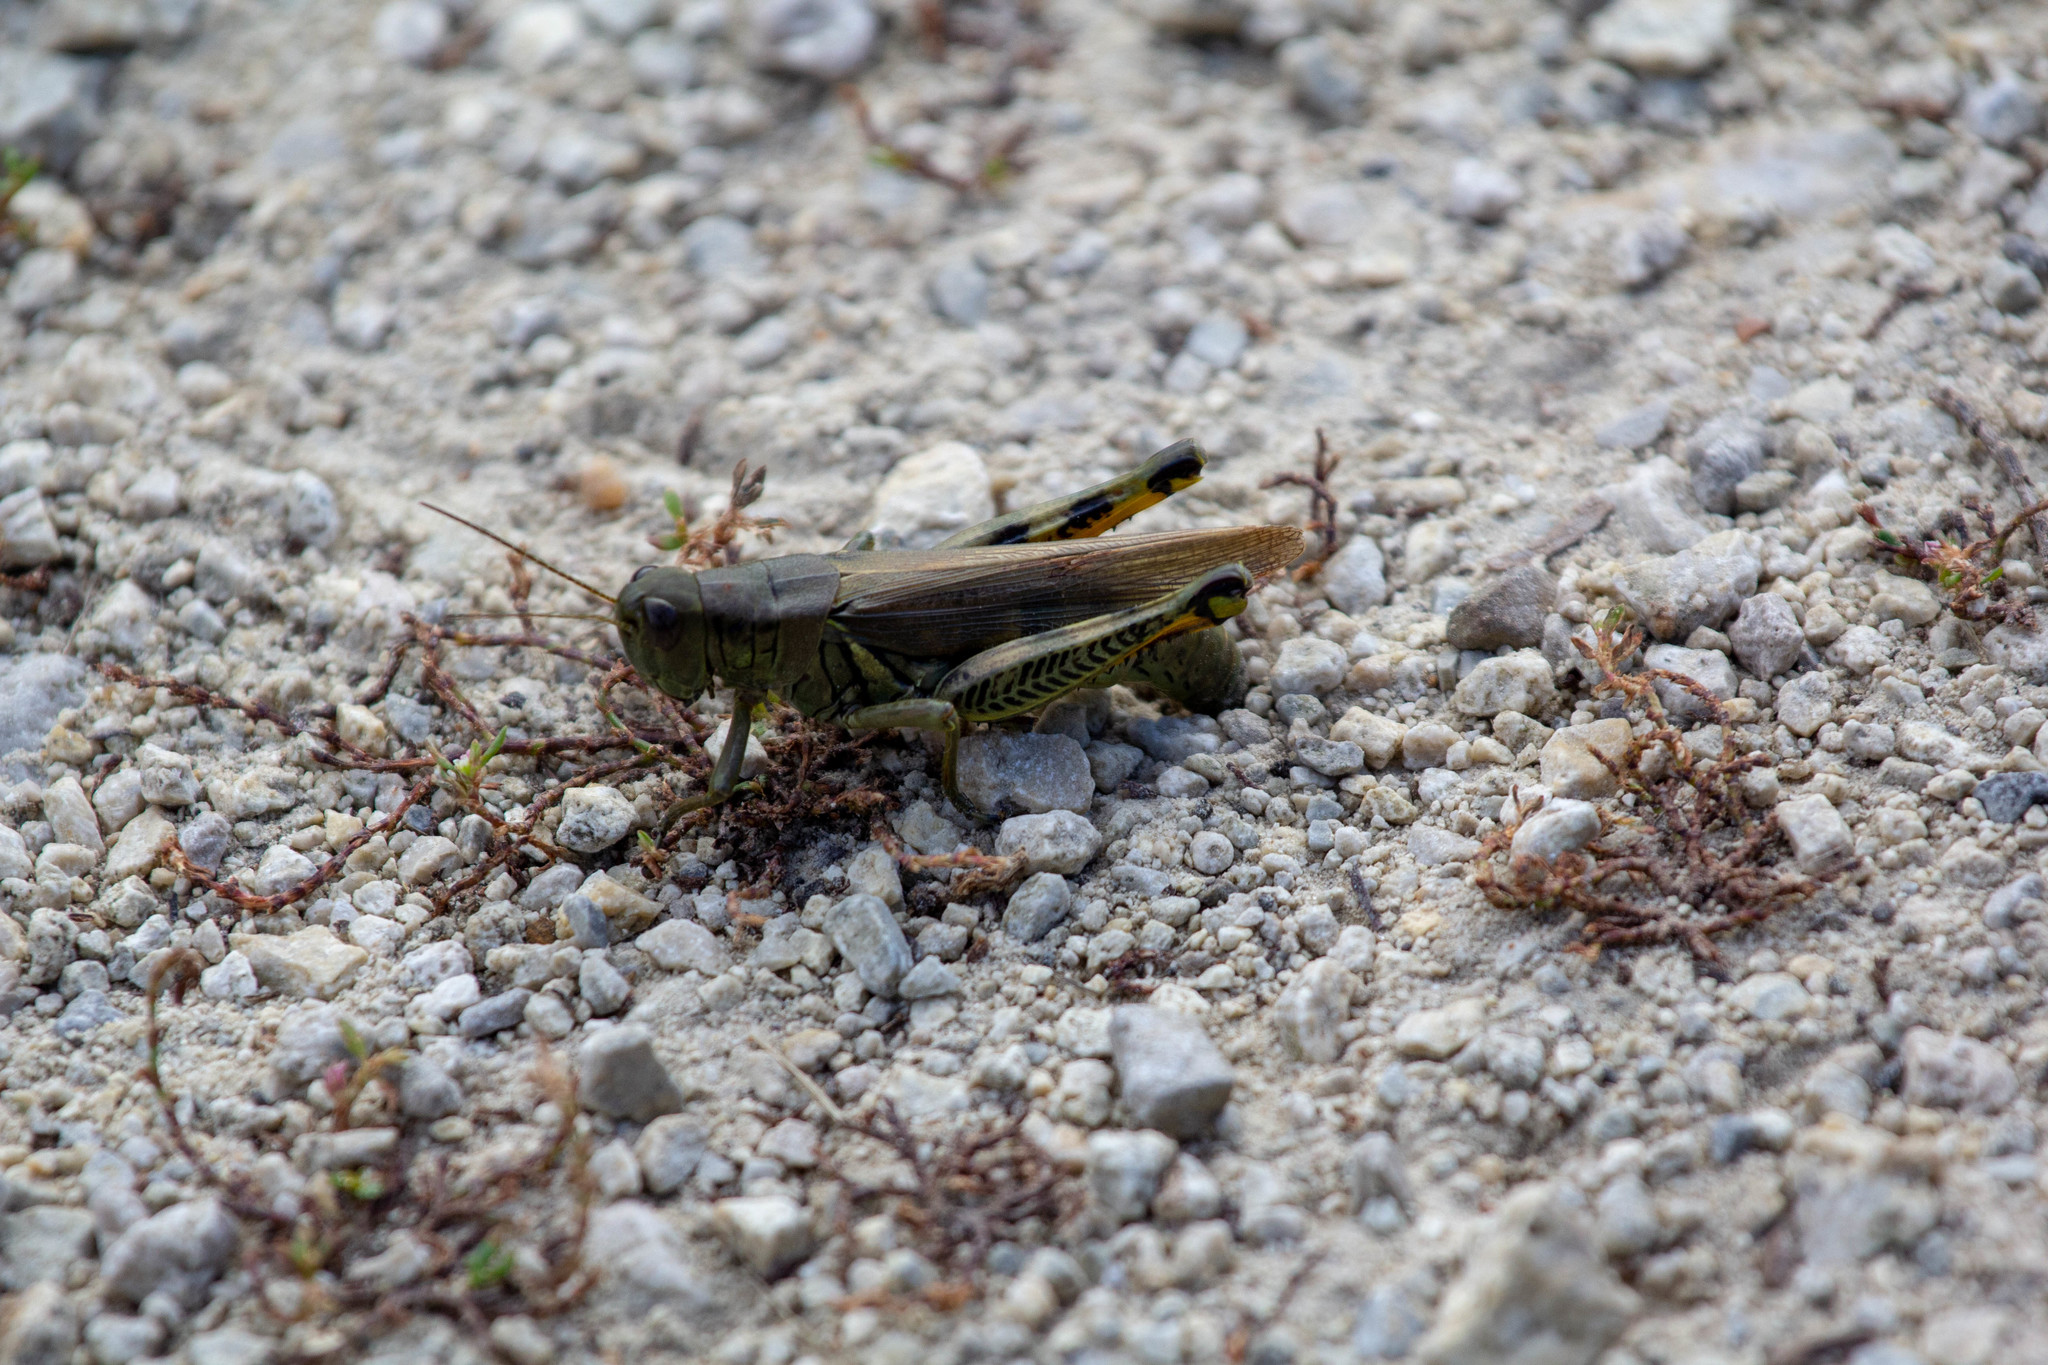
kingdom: Animalia
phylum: Arthropoda
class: Insecta
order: Orthoptera
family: Acrididae
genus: Melanoplus
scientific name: Melanoplus differentialis
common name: Differential grasshopper
